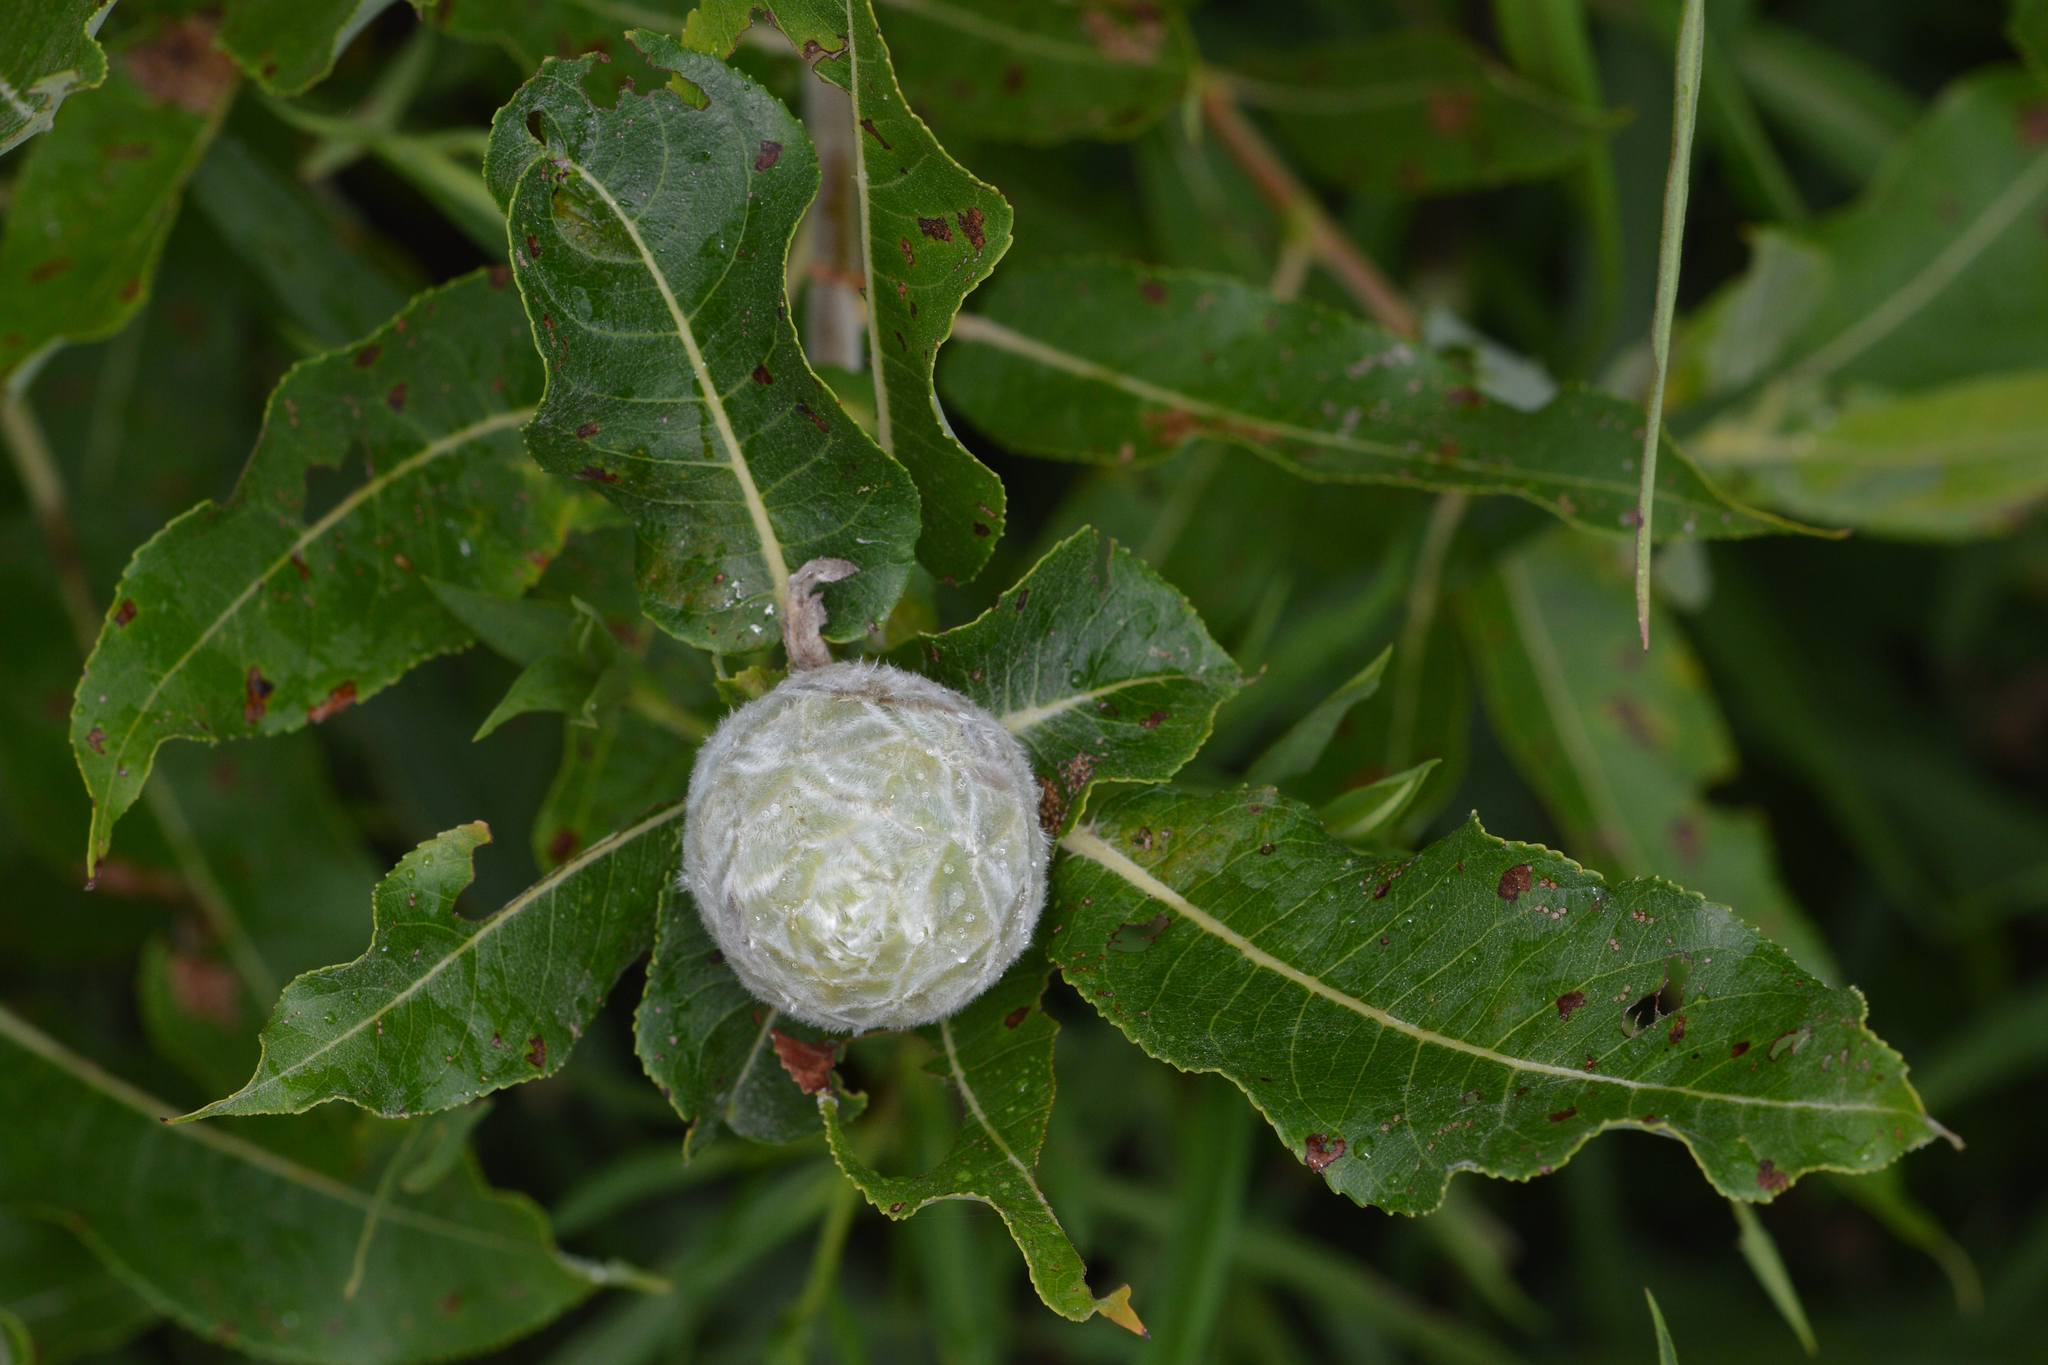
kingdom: Animalia
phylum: Arthropoda
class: Insecta
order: Diptera
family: Cecidomyiidae
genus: Rabdophaga
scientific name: Rabdophaga strobiloides
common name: Willow pinecone gall midge
